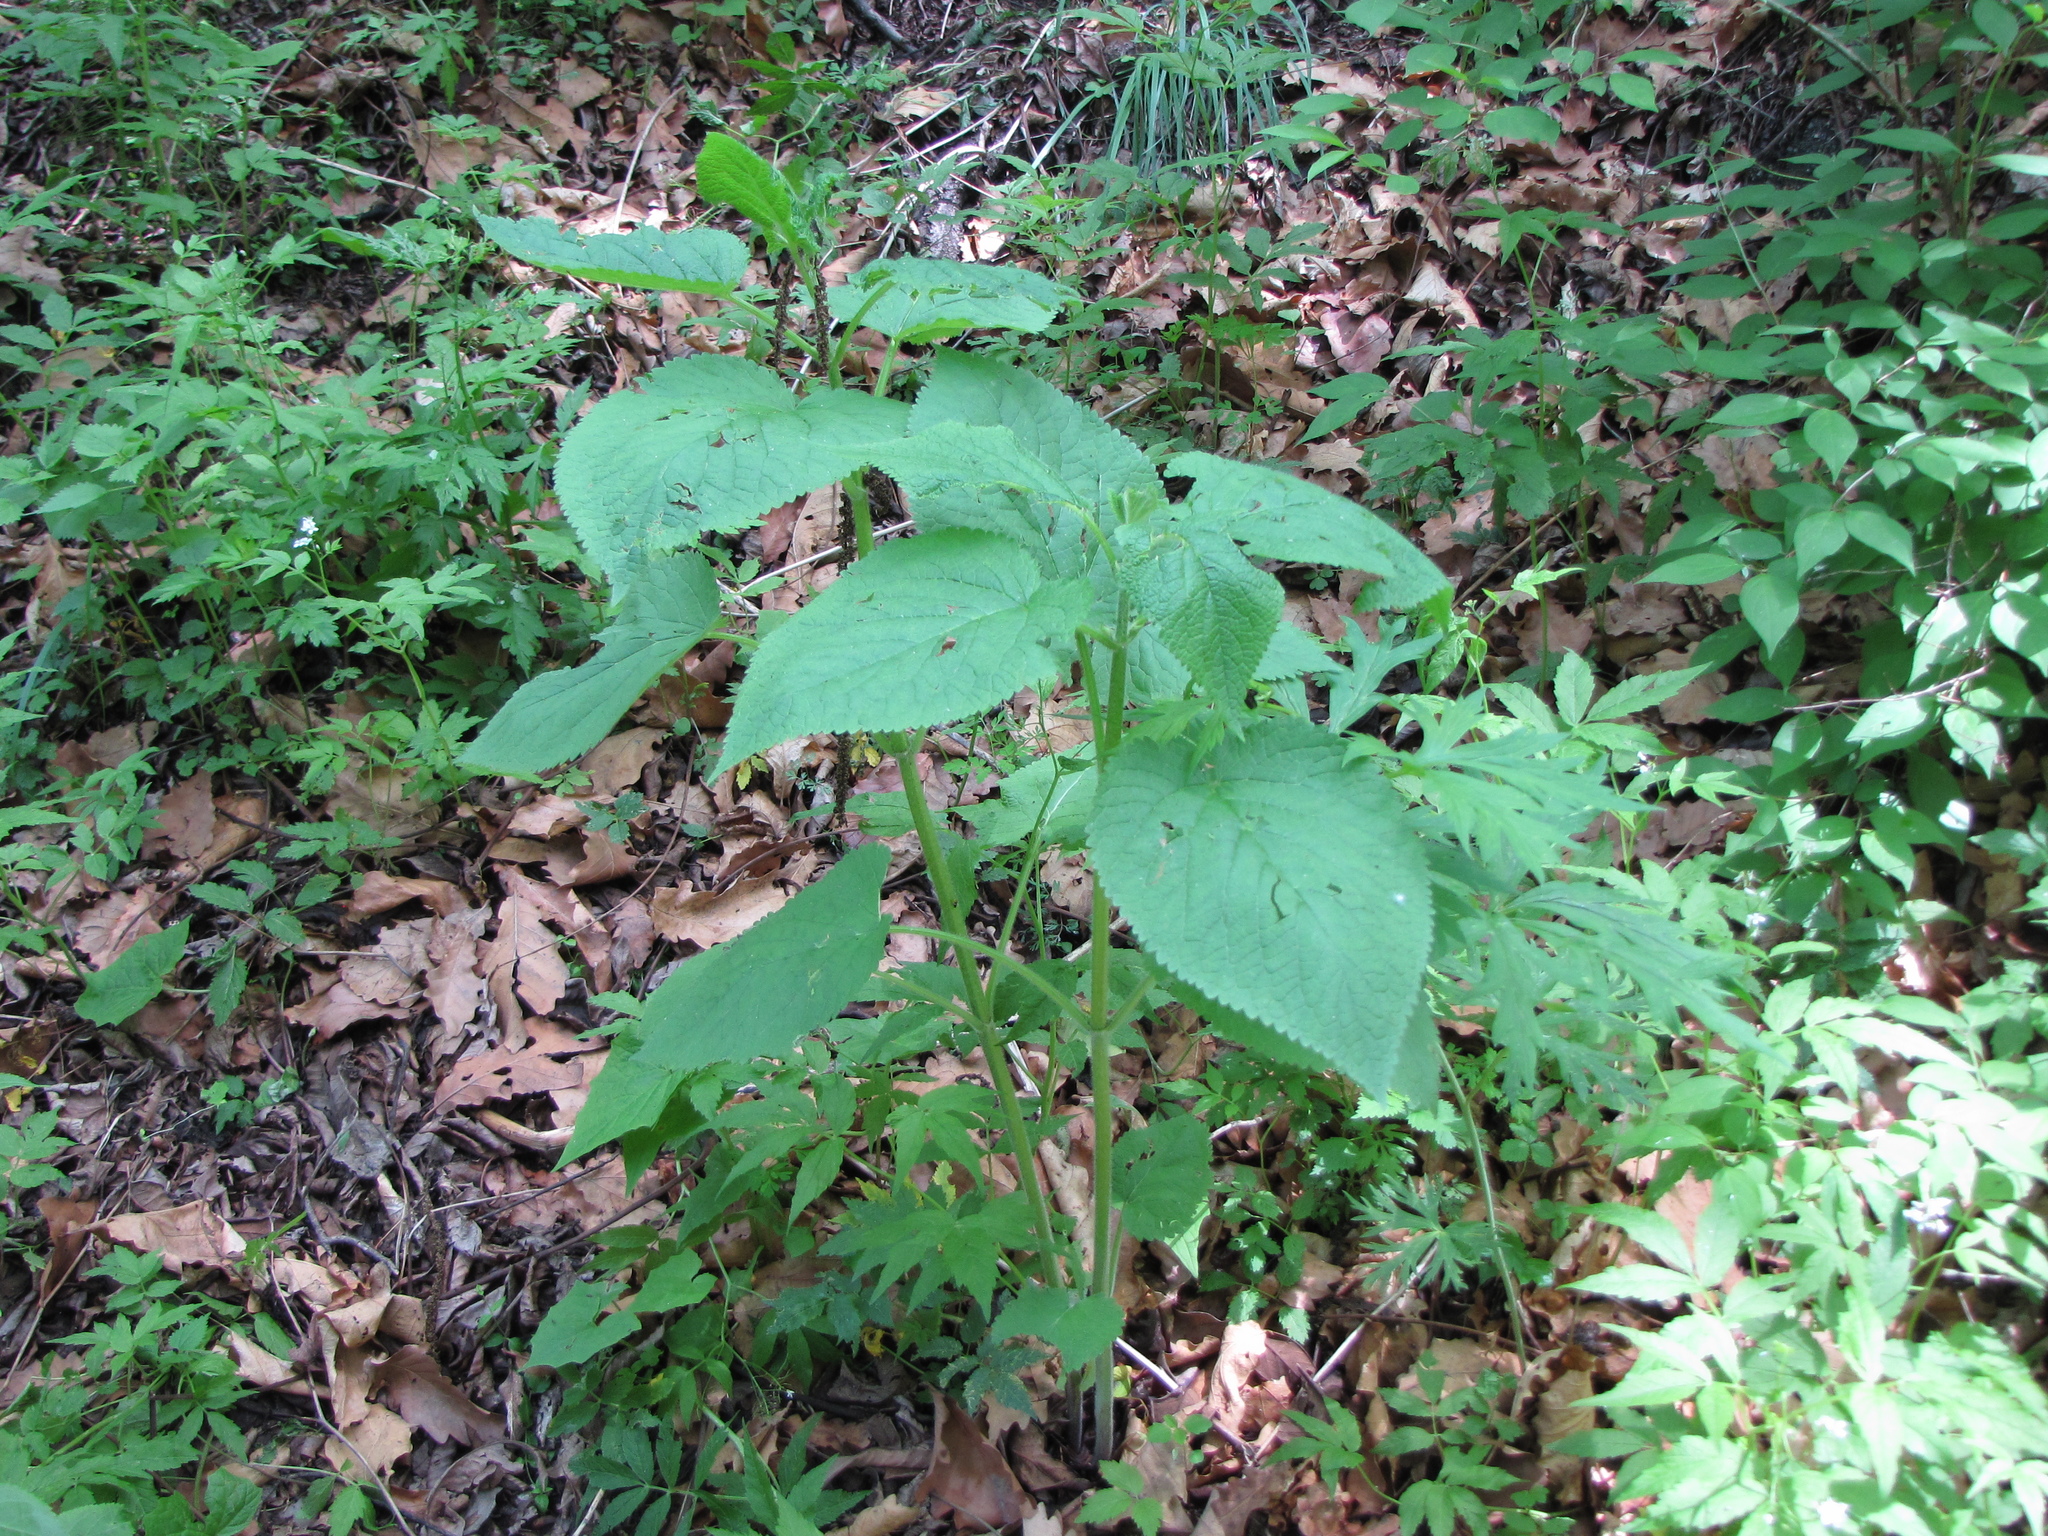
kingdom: Plantae
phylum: Tracheophyta
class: Magnoliopsida
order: Lamiales
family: Lamiaceae
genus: Phlomoides
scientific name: Phlomoides umbrosa
